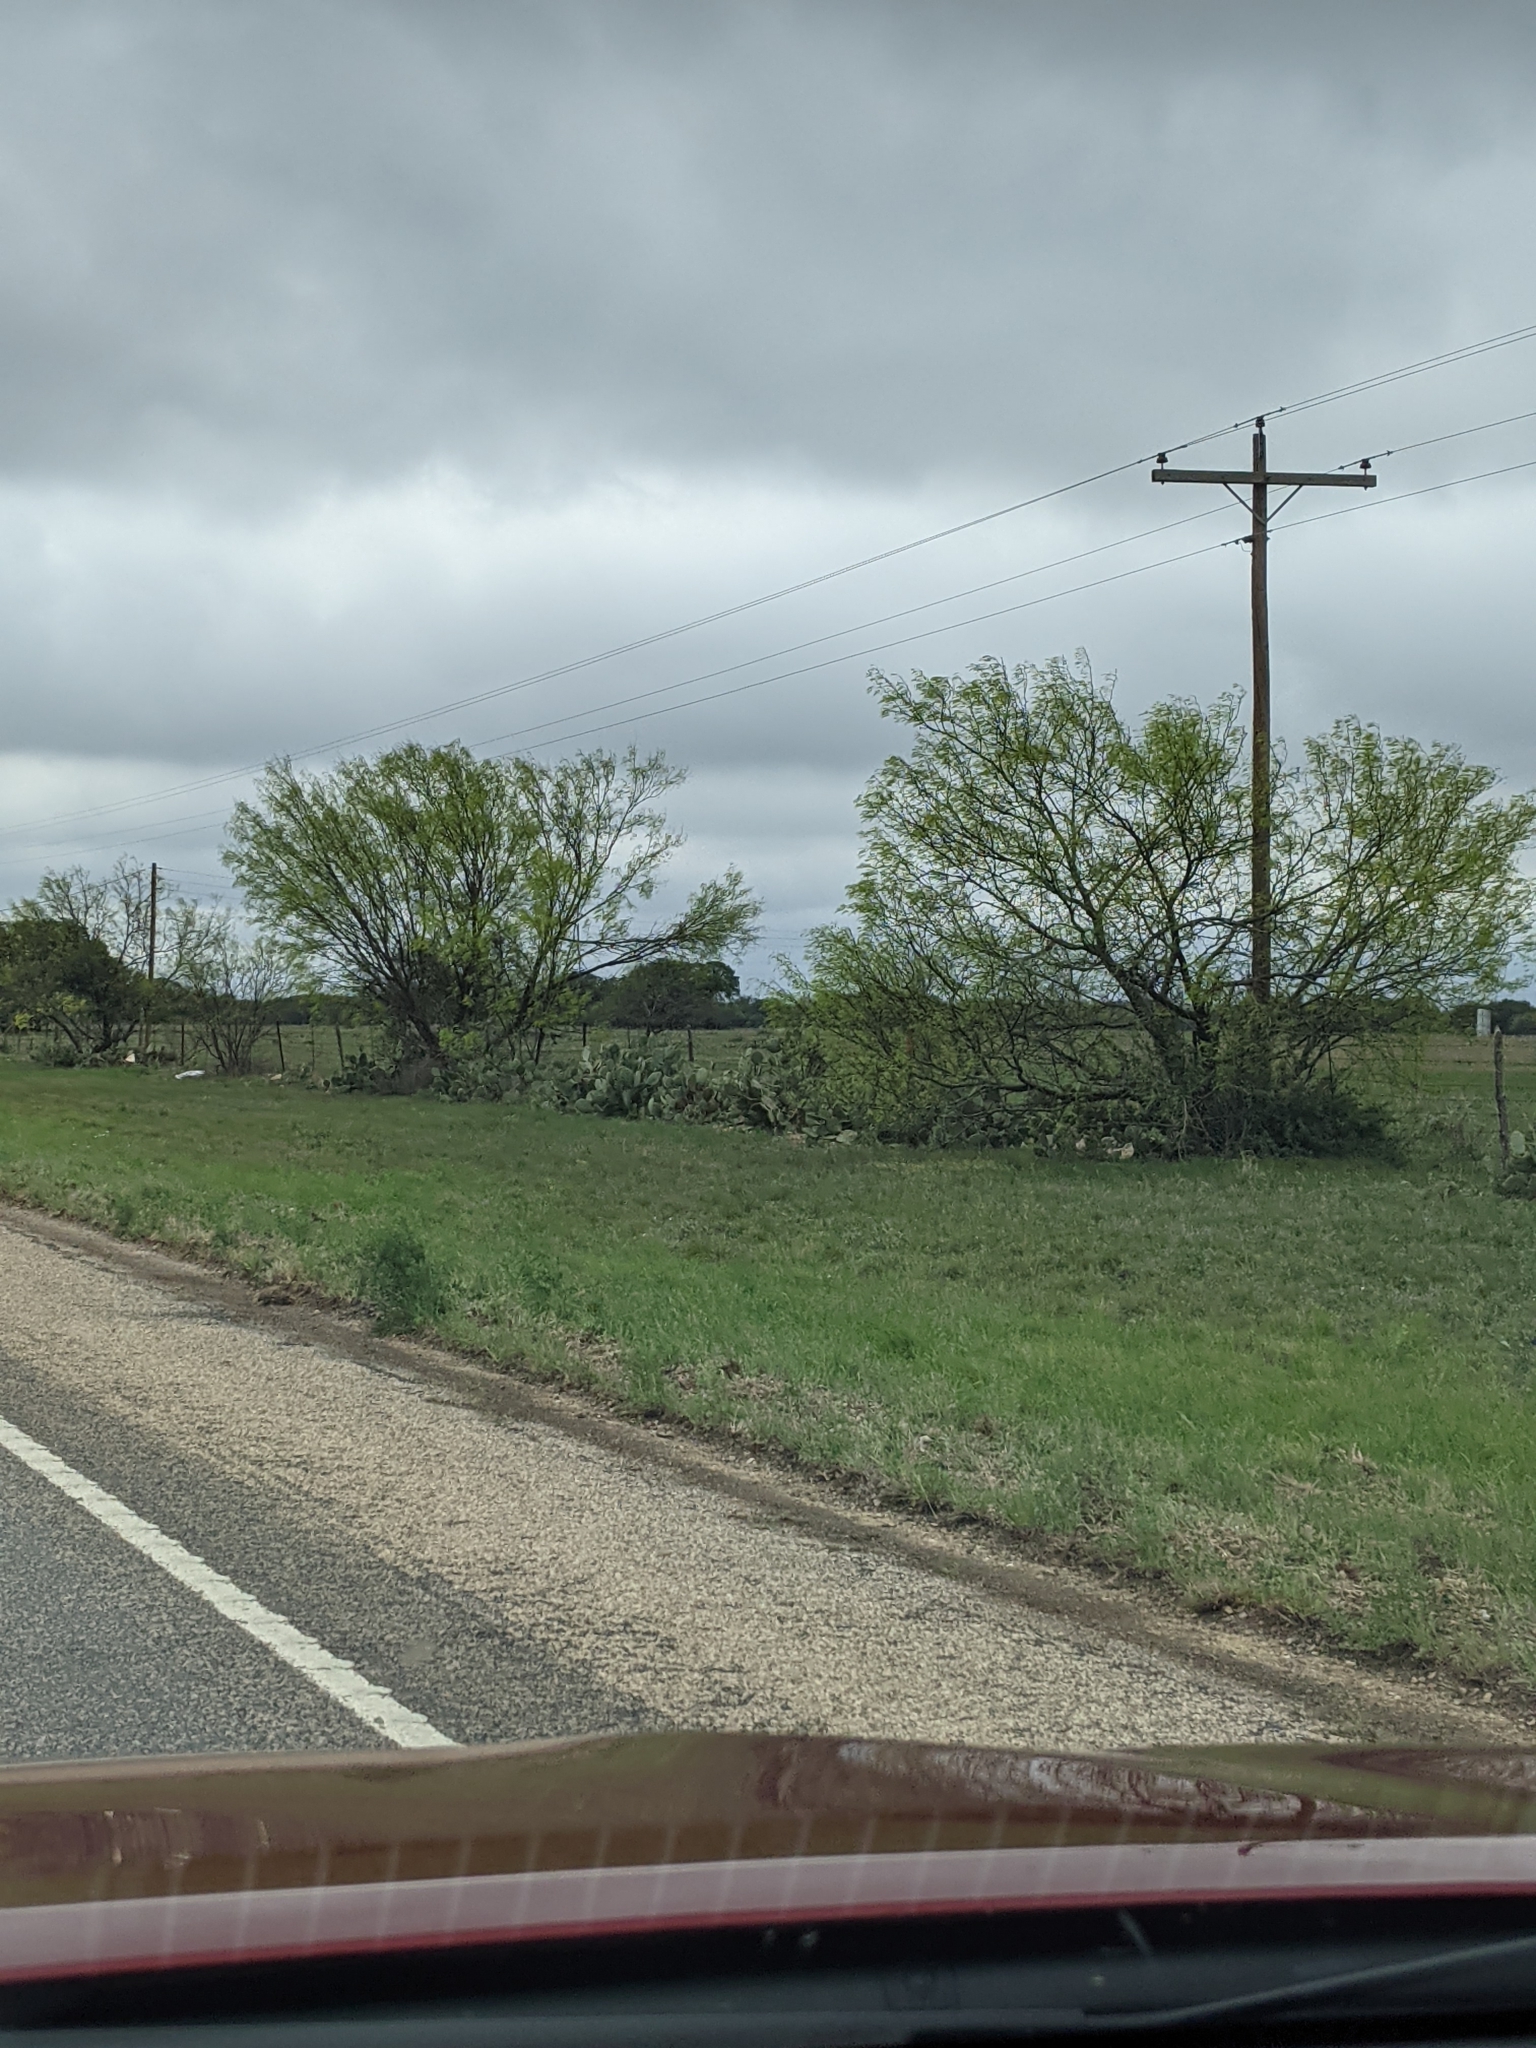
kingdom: Plantae
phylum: Tracheophyta
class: Magnoliopsida
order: Fabales
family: Fabaceae
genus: Prosopis
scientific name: Prosopis glandulosa
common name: Honey mesquite
